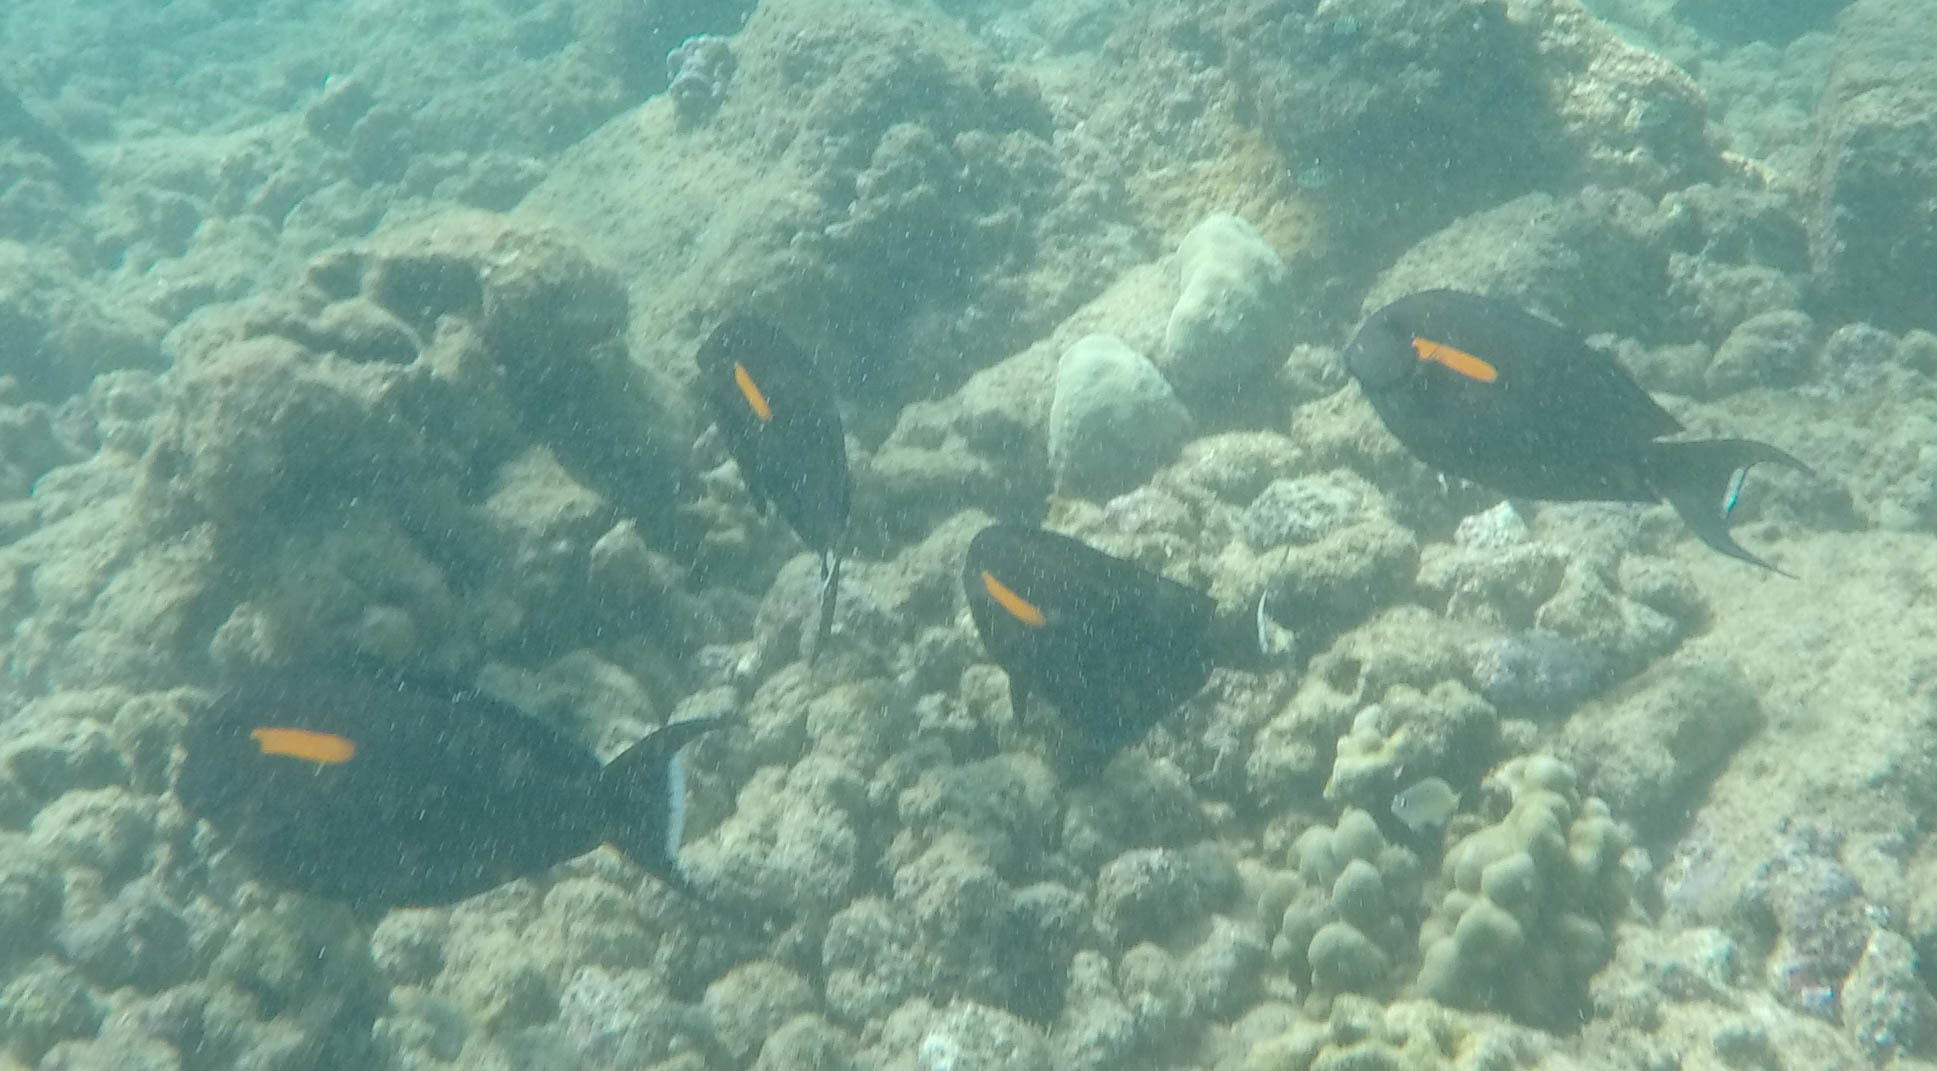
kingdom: Animalia
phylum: Chordata
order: Perciformes
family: Acanthuridae
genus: Acanthurus
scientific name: Acanthurus olivaceus
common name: Gendarme fish
